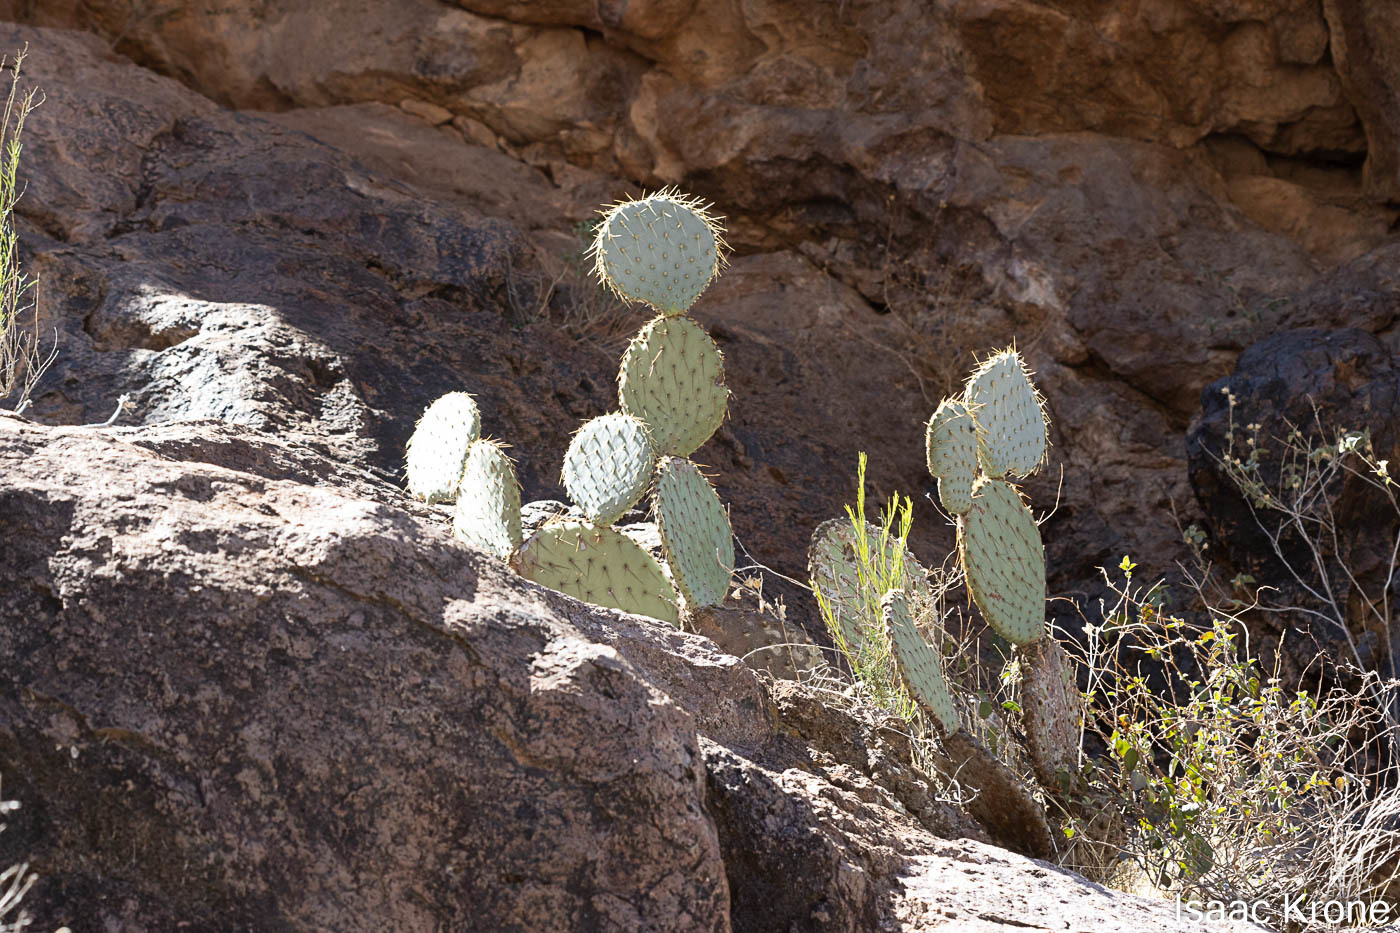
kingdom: Plantae
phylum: Tracheophyta
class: Magnoliopsida
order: Caryophyllales
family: Cactaceae
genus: Opuntia
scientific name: Opuntia chlorotica
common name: Dollar-joint prickly-pear
